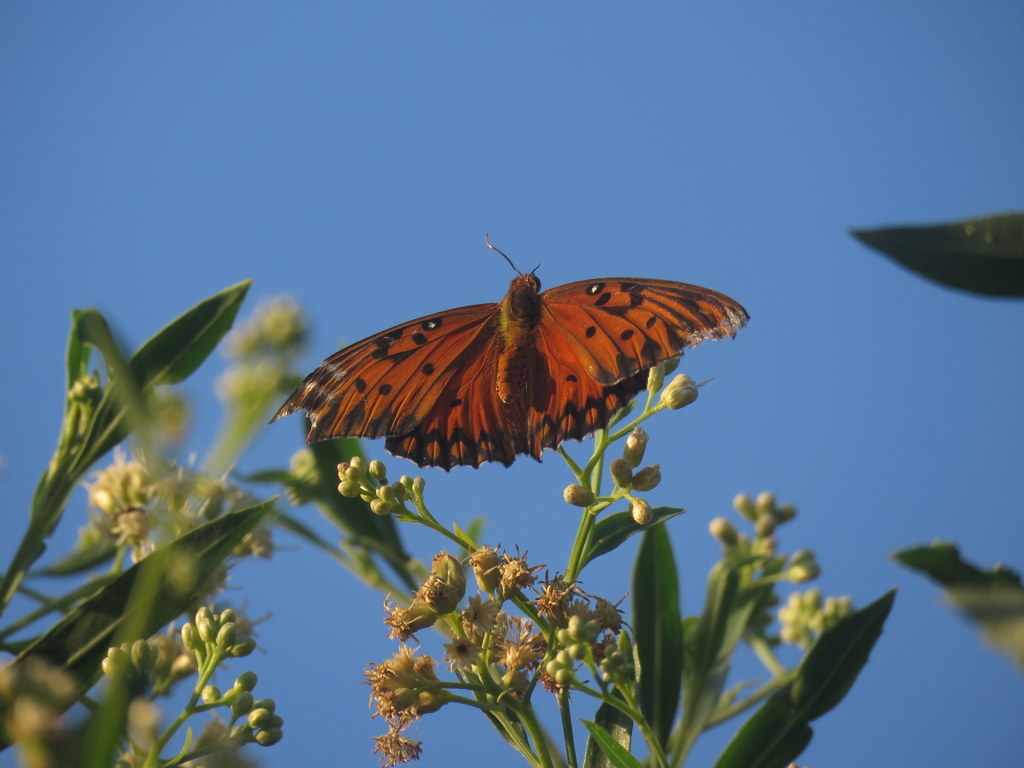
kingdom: Animalia
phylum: Arthropoda
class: Insecta
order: Lepidoptera
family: Nymphalidae
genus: Dione
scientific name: Dione vanillae
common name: Gulf fritillary
